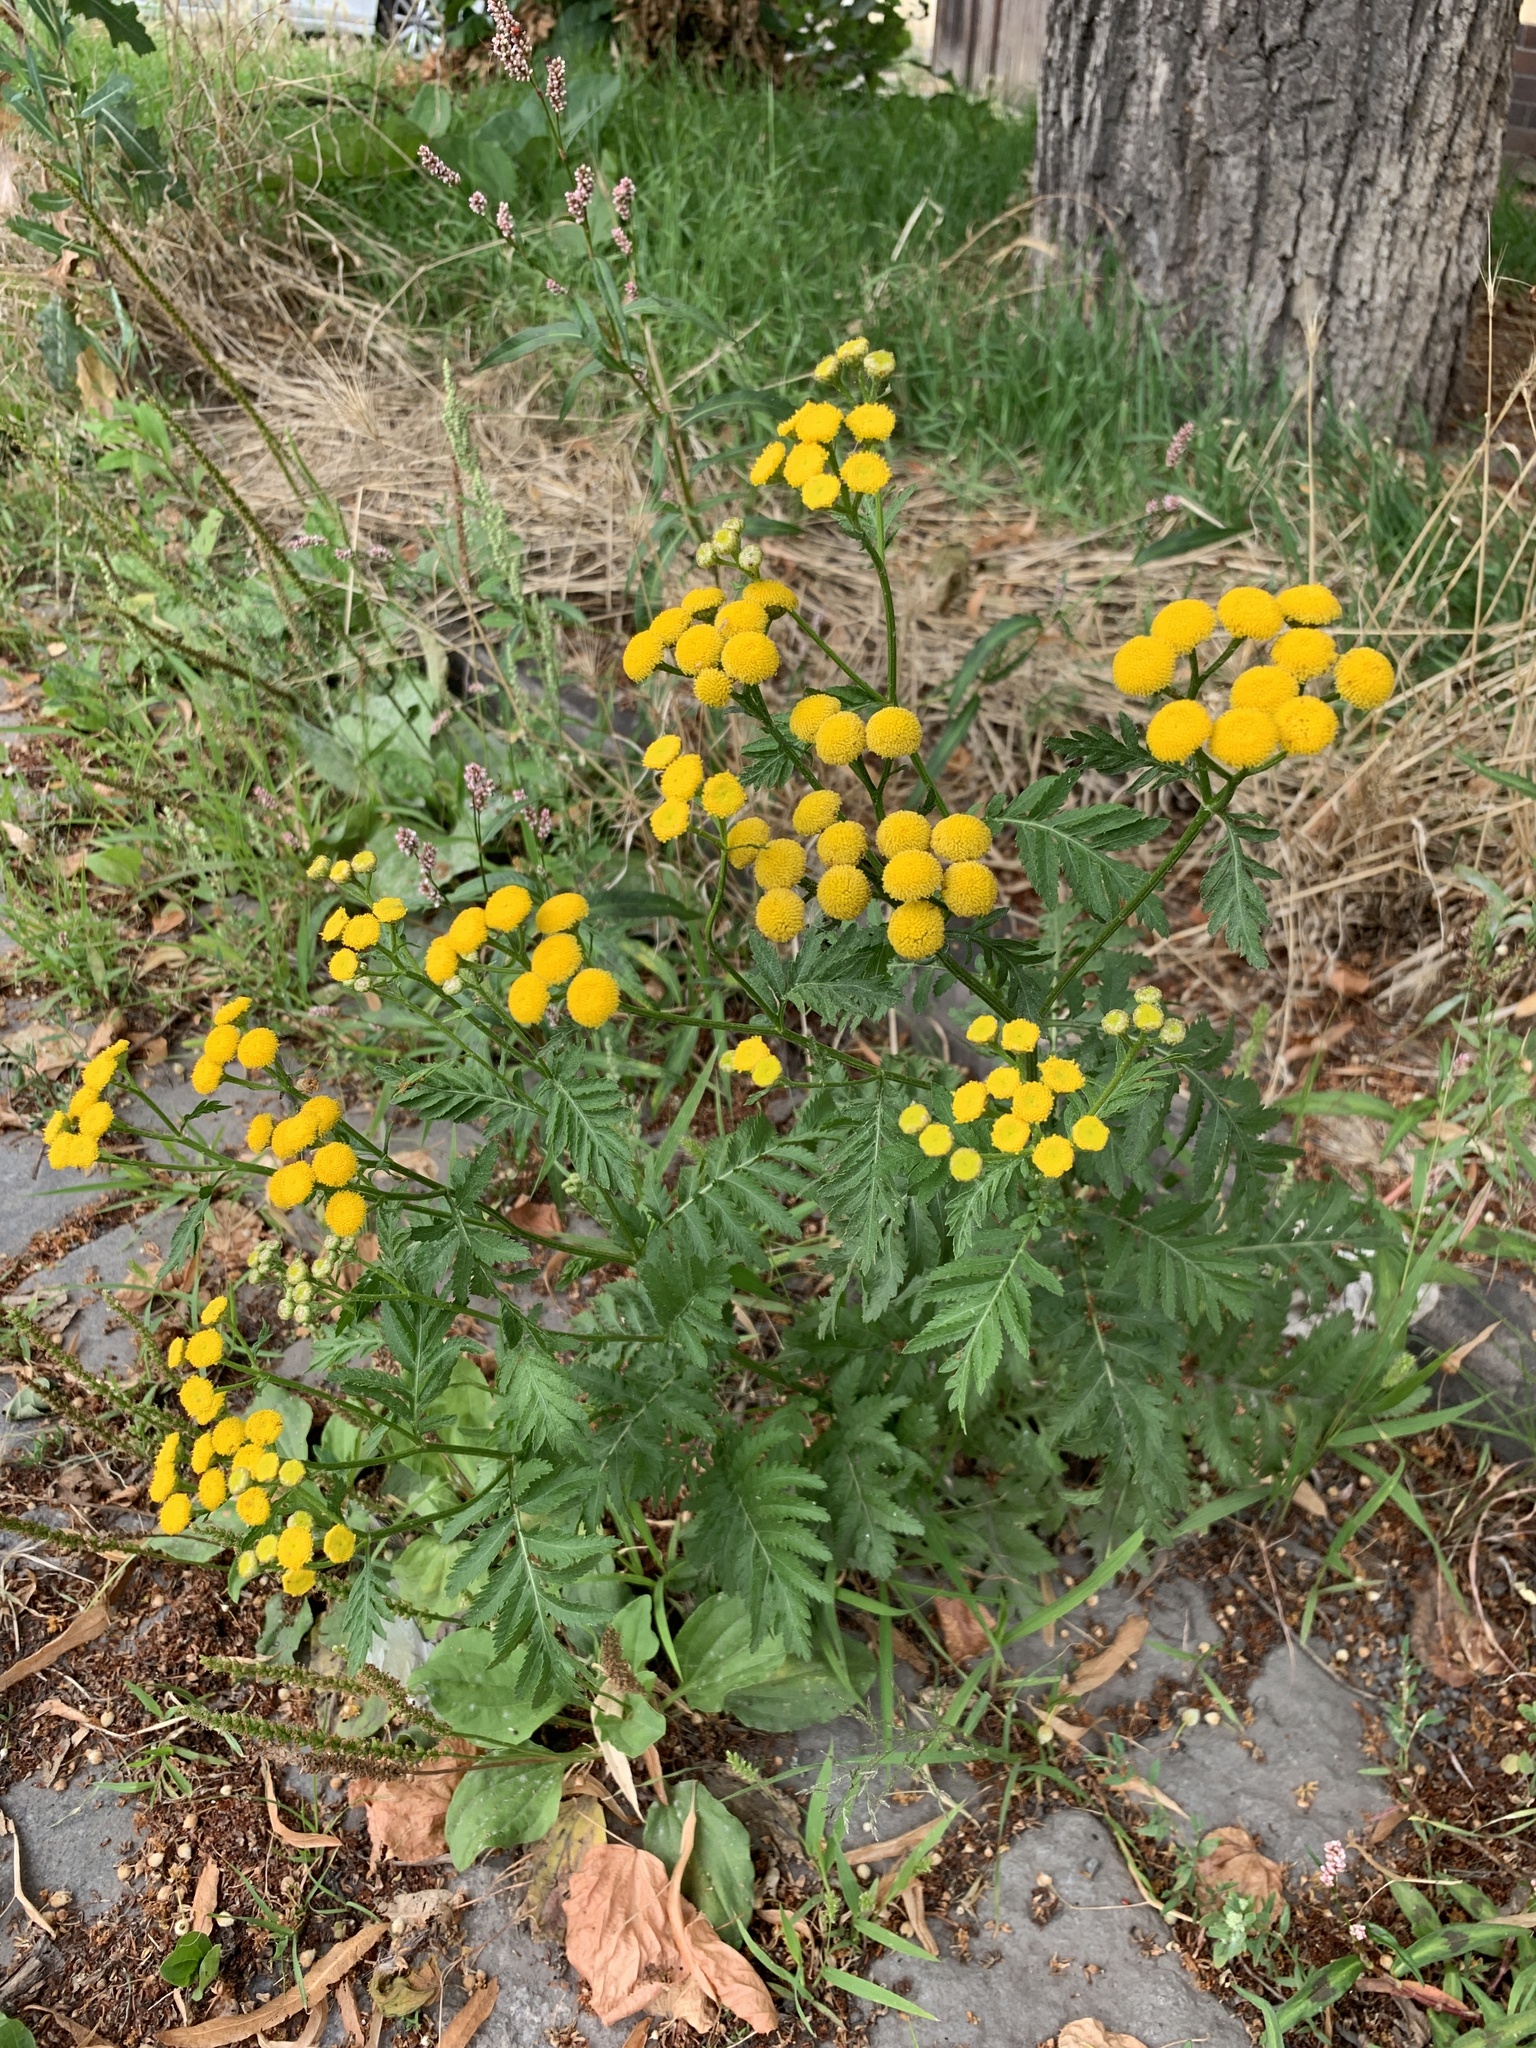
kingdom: Plantae
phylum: Tracheophyta
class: Magnoliopsida
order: Asterales
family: Asteraceae
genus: Tanacetum
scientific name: Tanacetum vulgare
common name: Common tansy
